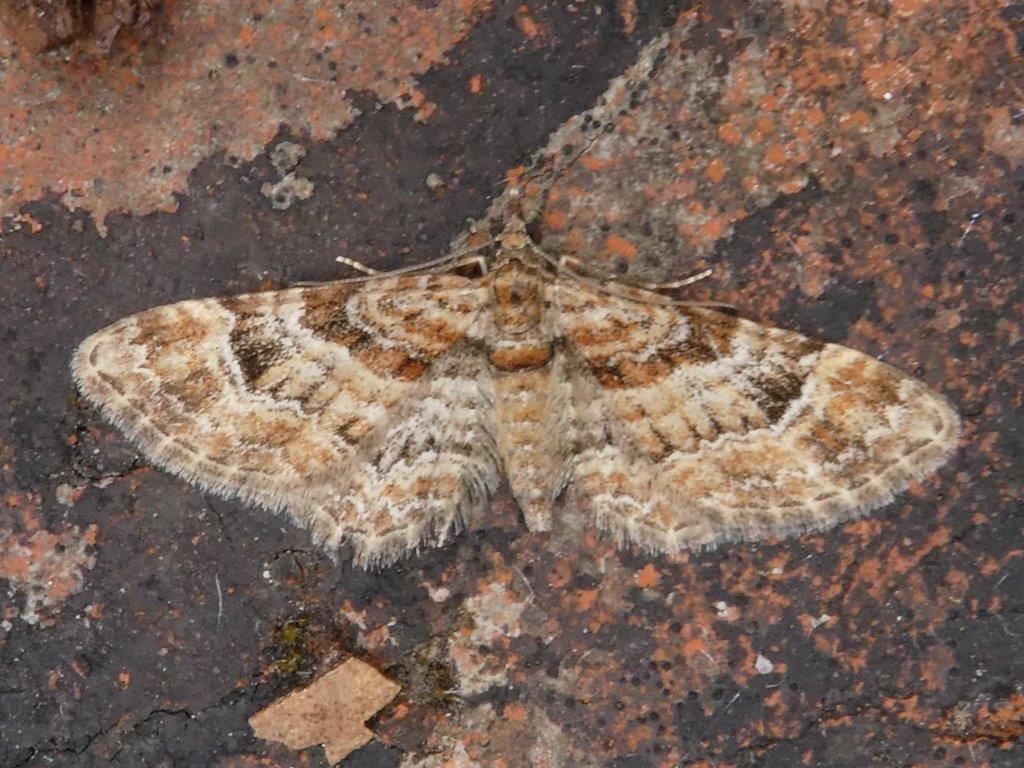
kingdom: Animalia
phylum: Arthropoda
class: Insecta
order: Lepidoptera
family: Geometridae
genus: Gymnoscelis
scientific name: Gymnoscelis rufifasciata
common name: Double-striped pug
